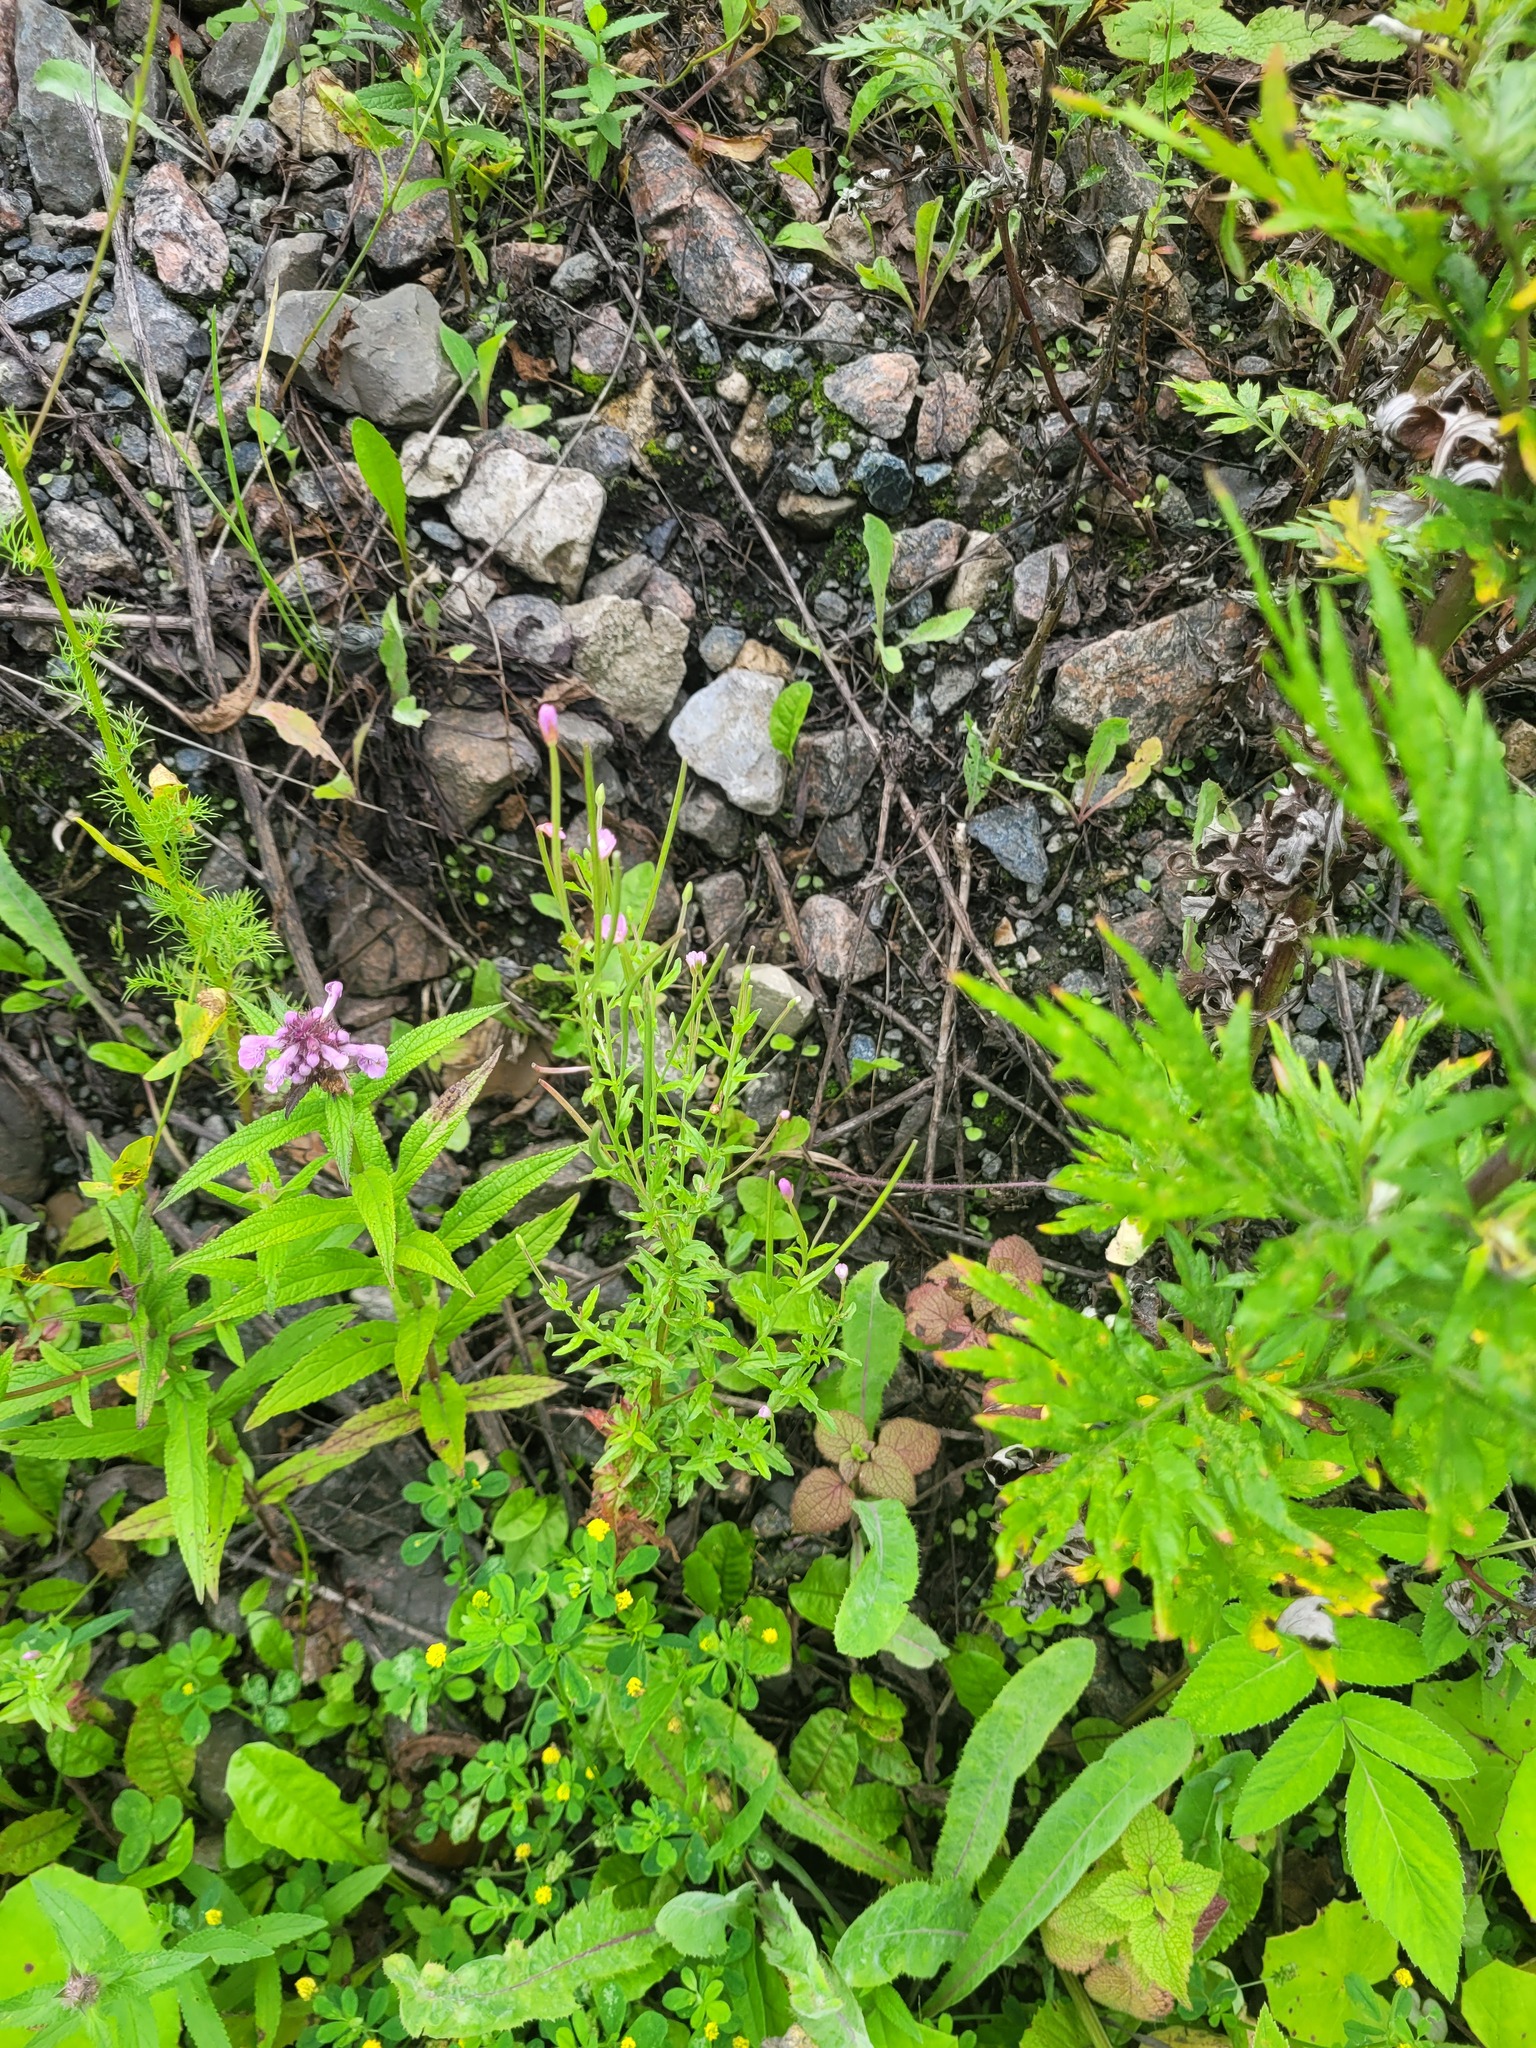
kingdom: Plantae
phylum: Tracheophyta
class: Magnoliopsida
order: Myrtales
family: Onagraceae
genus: Epilobium
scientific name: Epilobium lamyi
